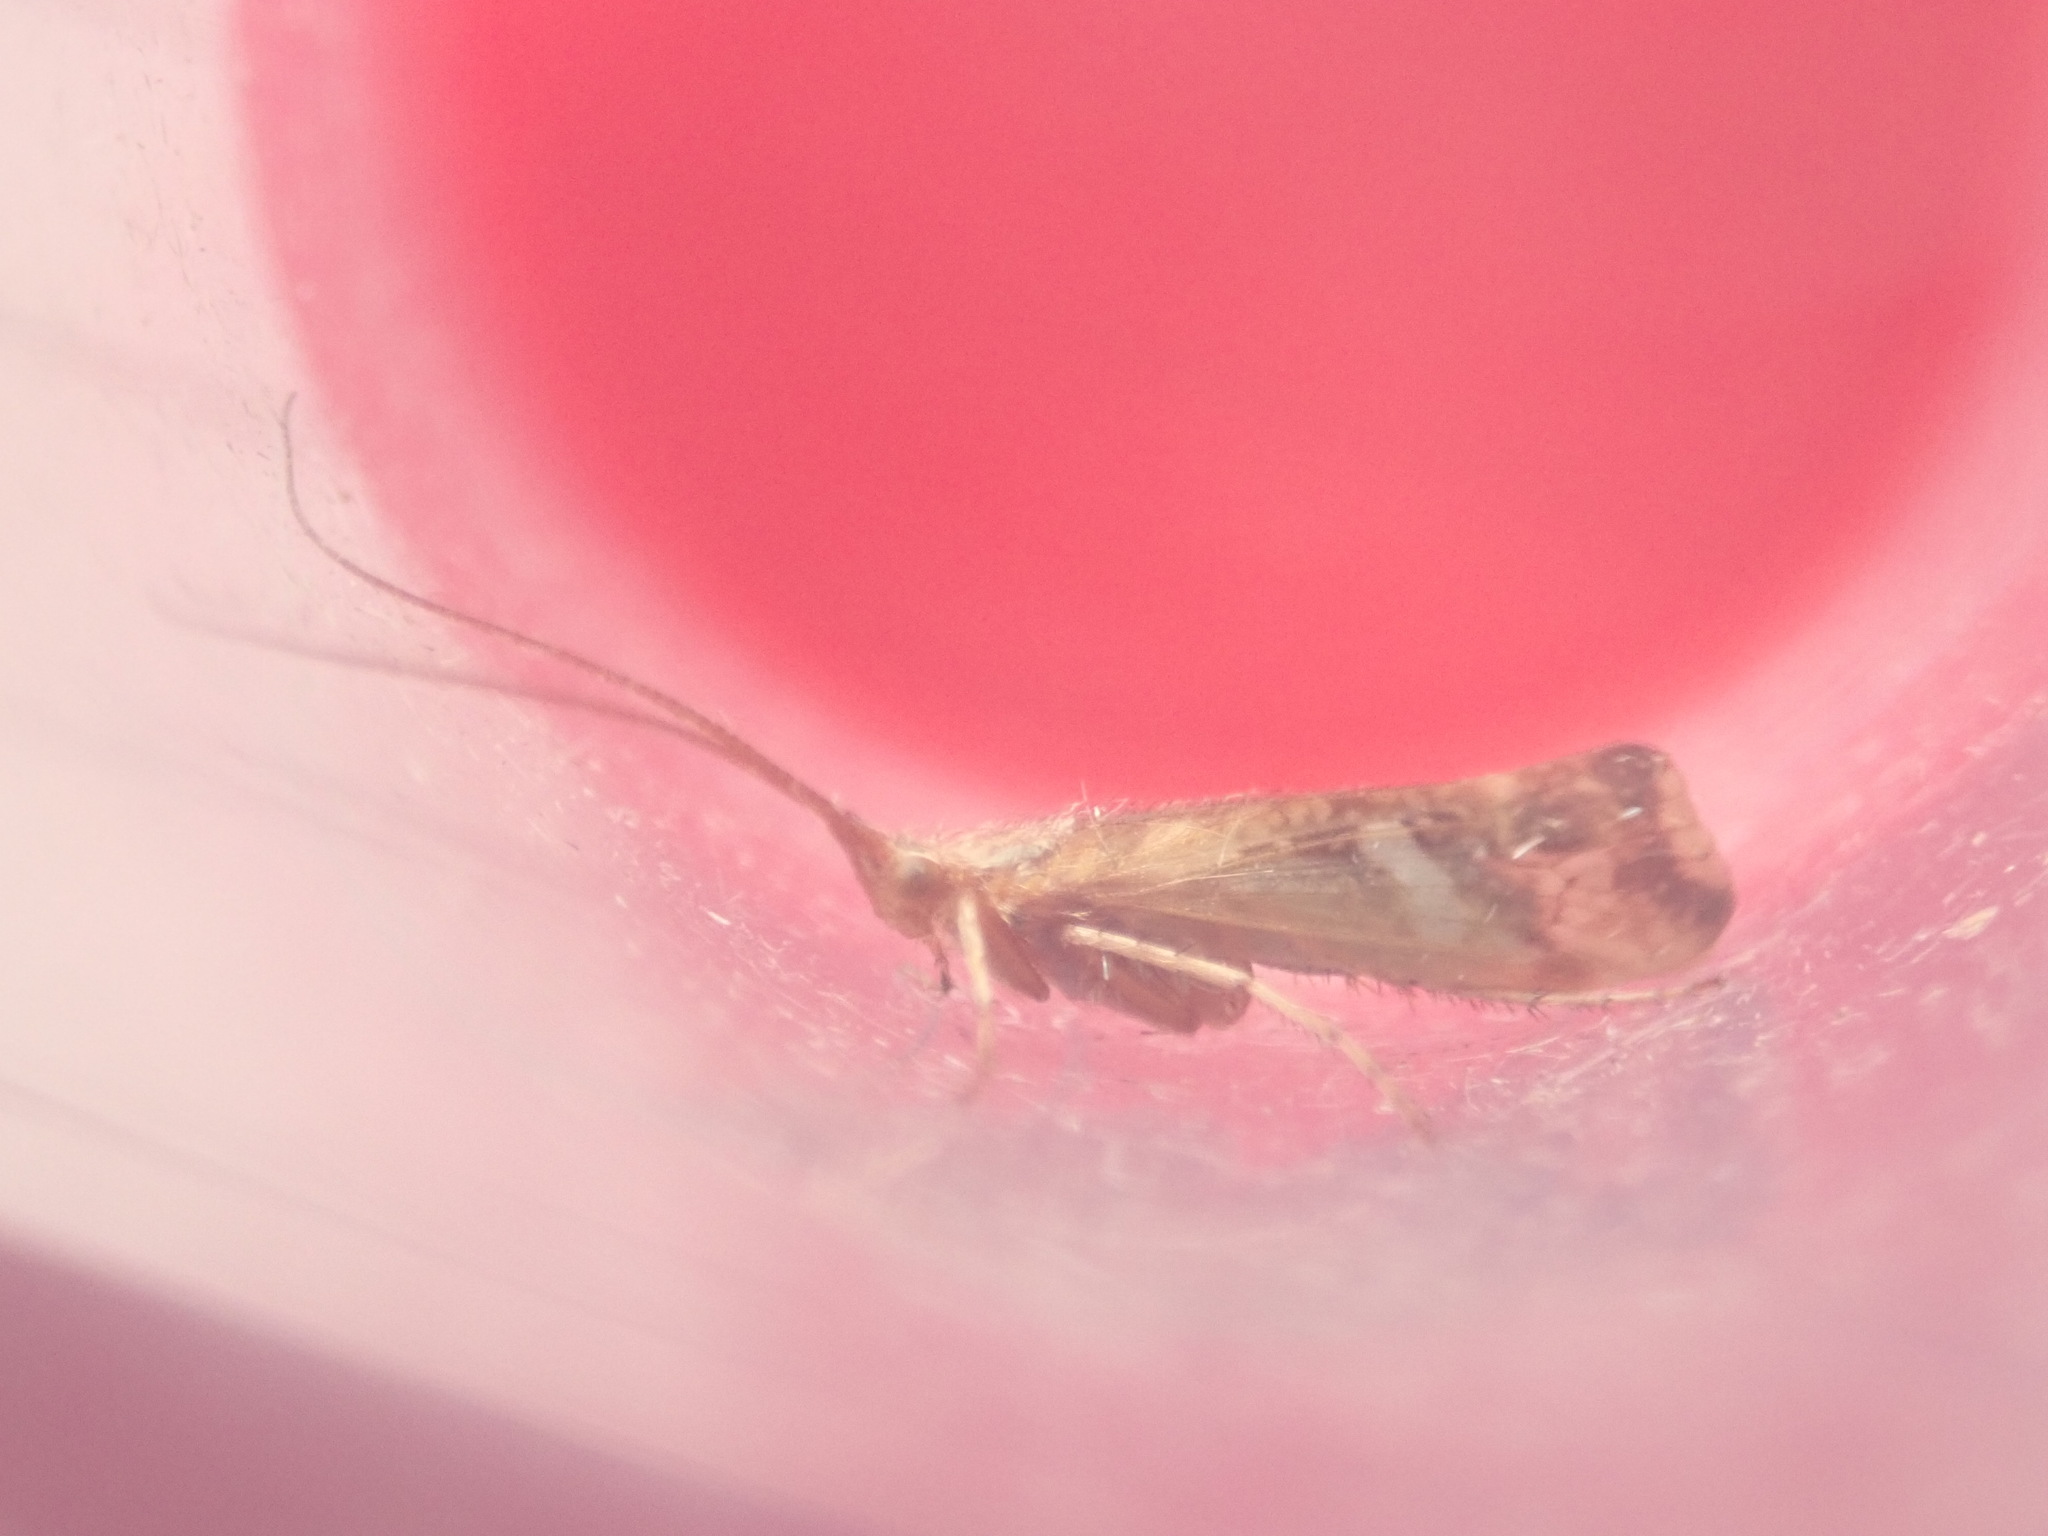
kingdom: Animalia
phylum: Arthropoda
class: Insecta
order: Trichoptera
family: Limnephilidae
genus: Limnephilus
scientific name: Limnephilus lunatus
